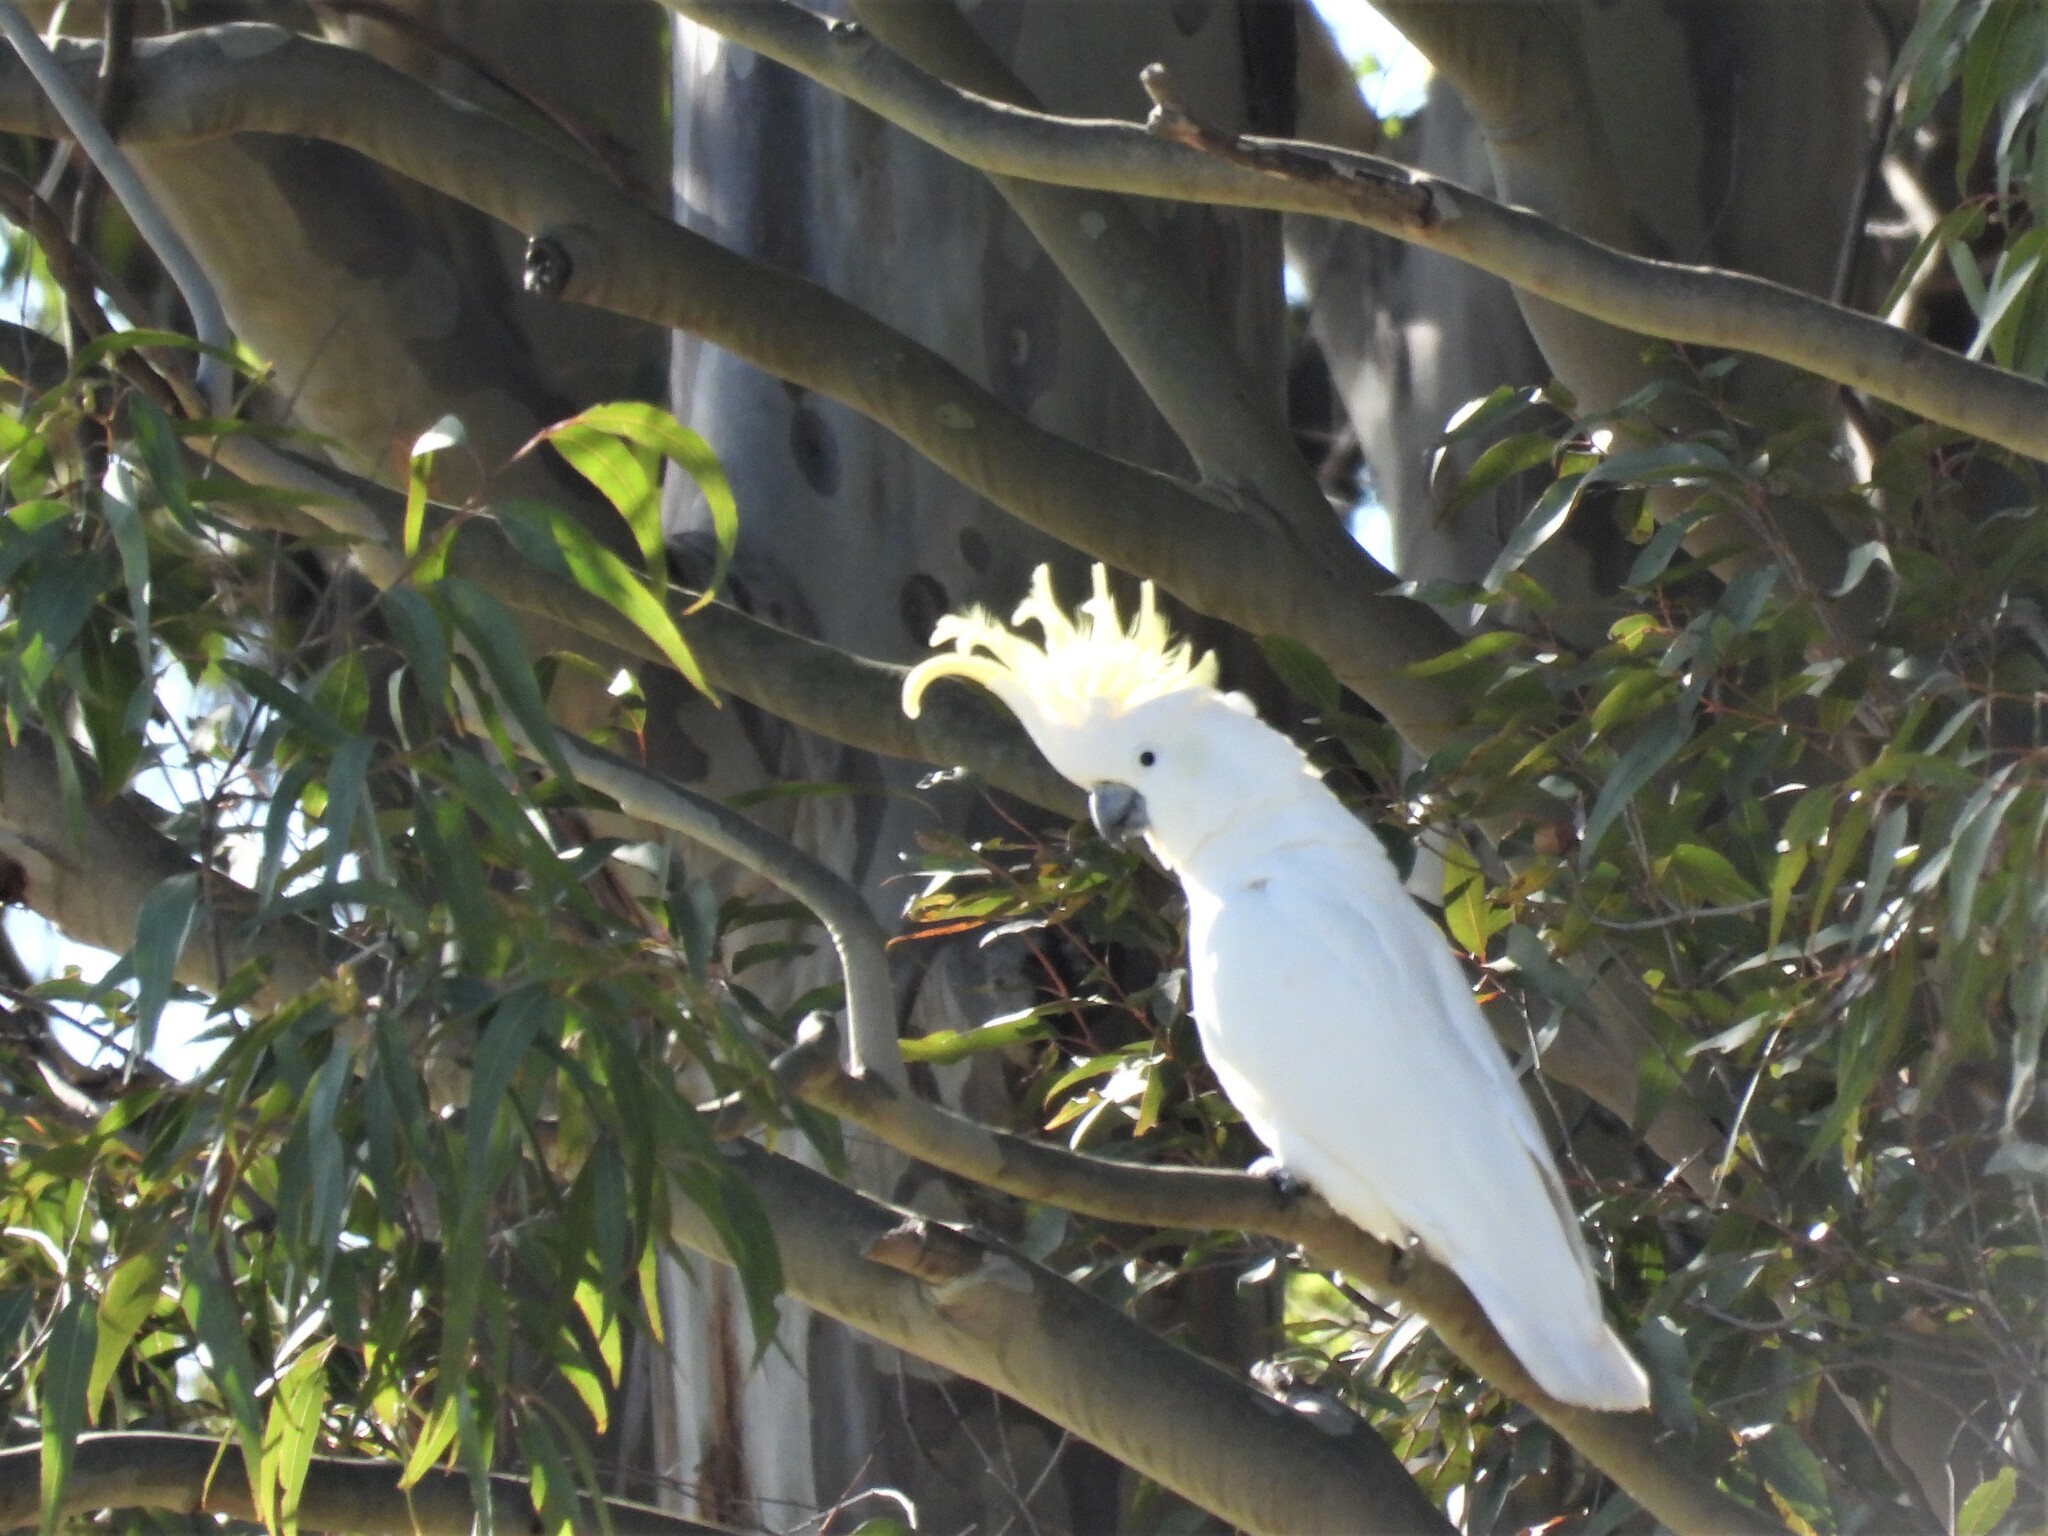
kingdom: Animalia
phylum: Chordata
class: Aves
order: Psittaciformes
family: Psittacidae
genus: Cacatua
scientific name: Cacatua galerita
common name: Sulphur-crested cockatoo
